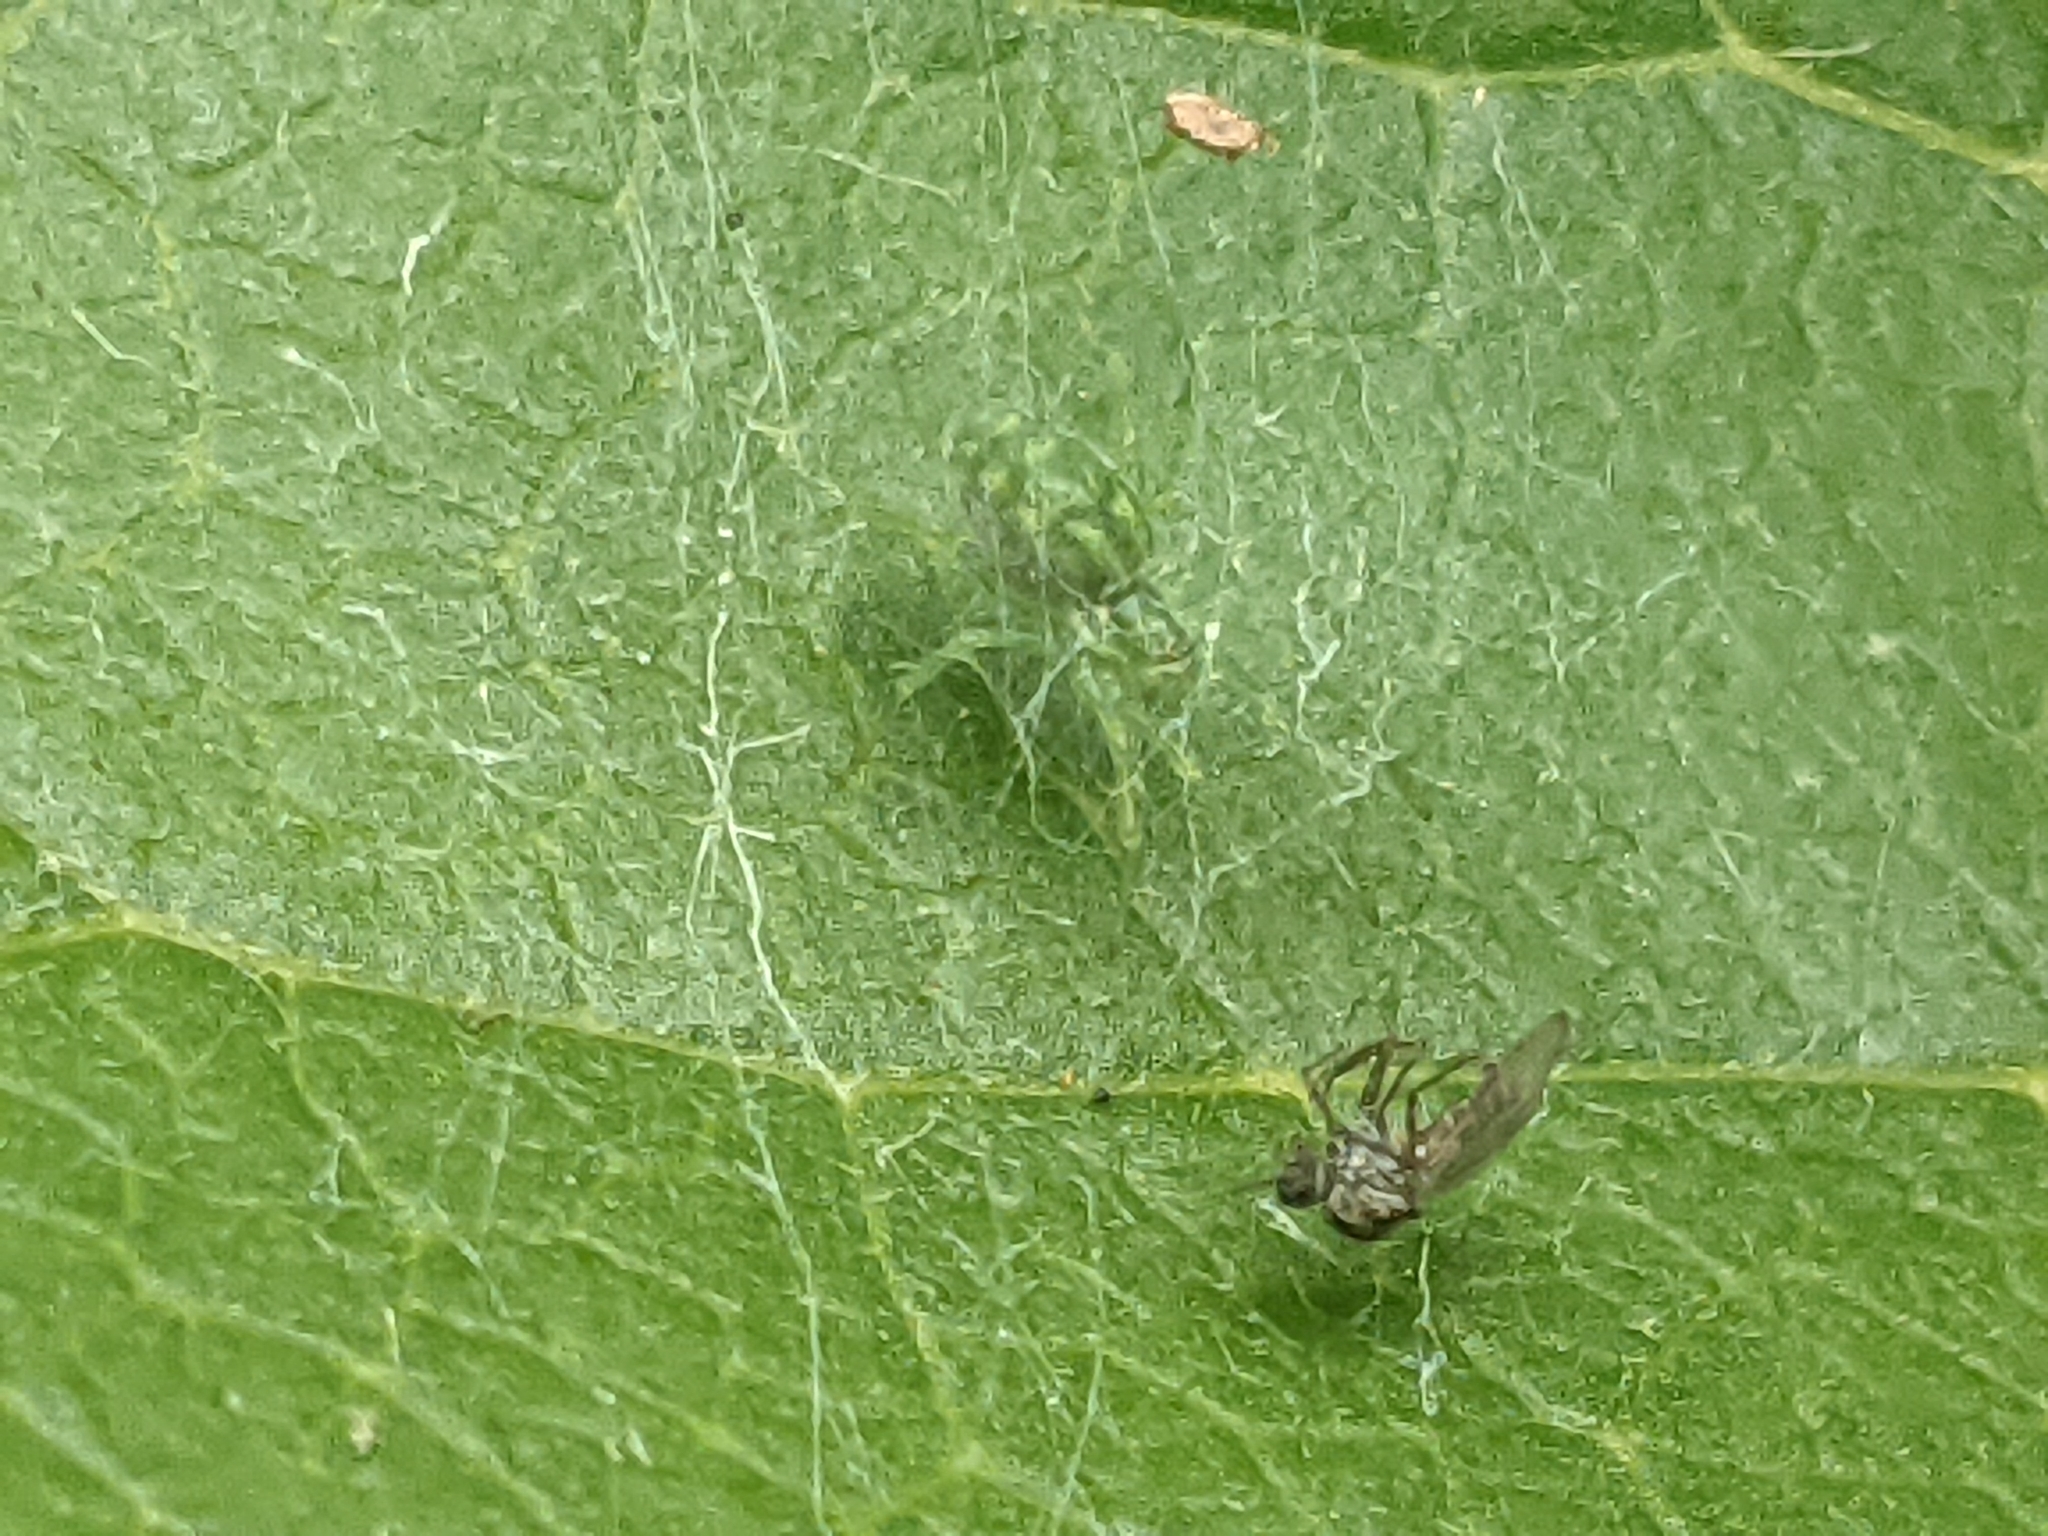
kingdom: Animalia
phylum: Arthropoda
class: Arachnida
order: Araneae
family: Dictynidae
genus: Nigma
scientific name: Nigma walckenaeri
